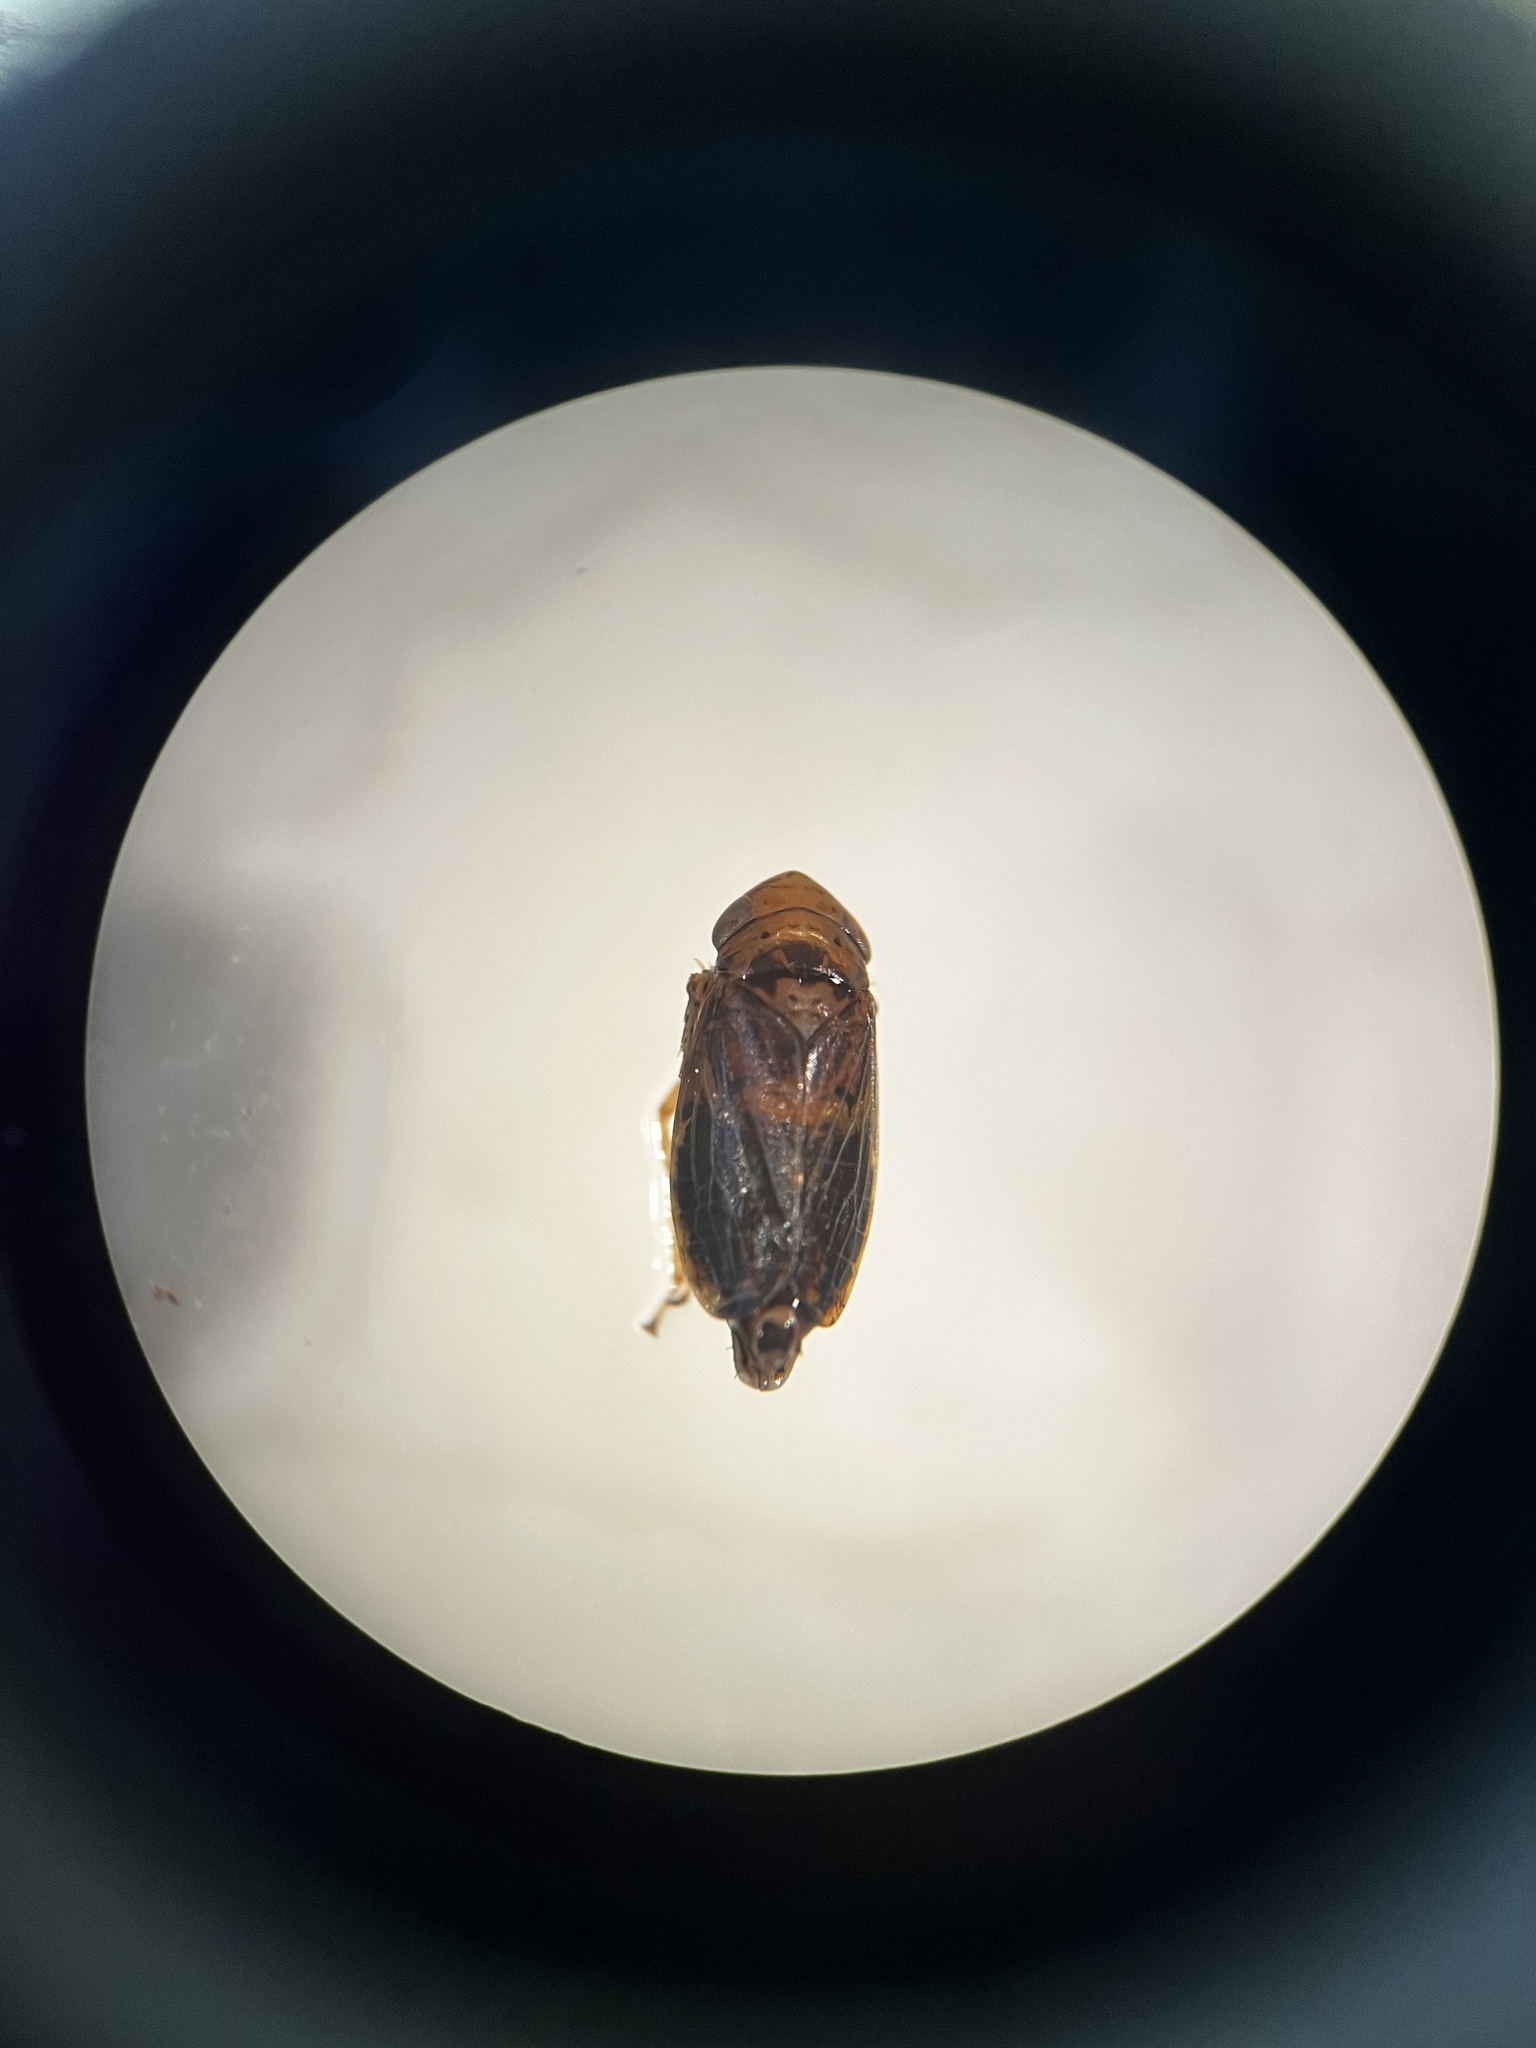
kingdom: Animalia
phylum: Arthropoda
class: Insecta
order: Hemiptera
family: Cicadellidae
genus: Streptanus
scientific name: Streptanus sordidus
